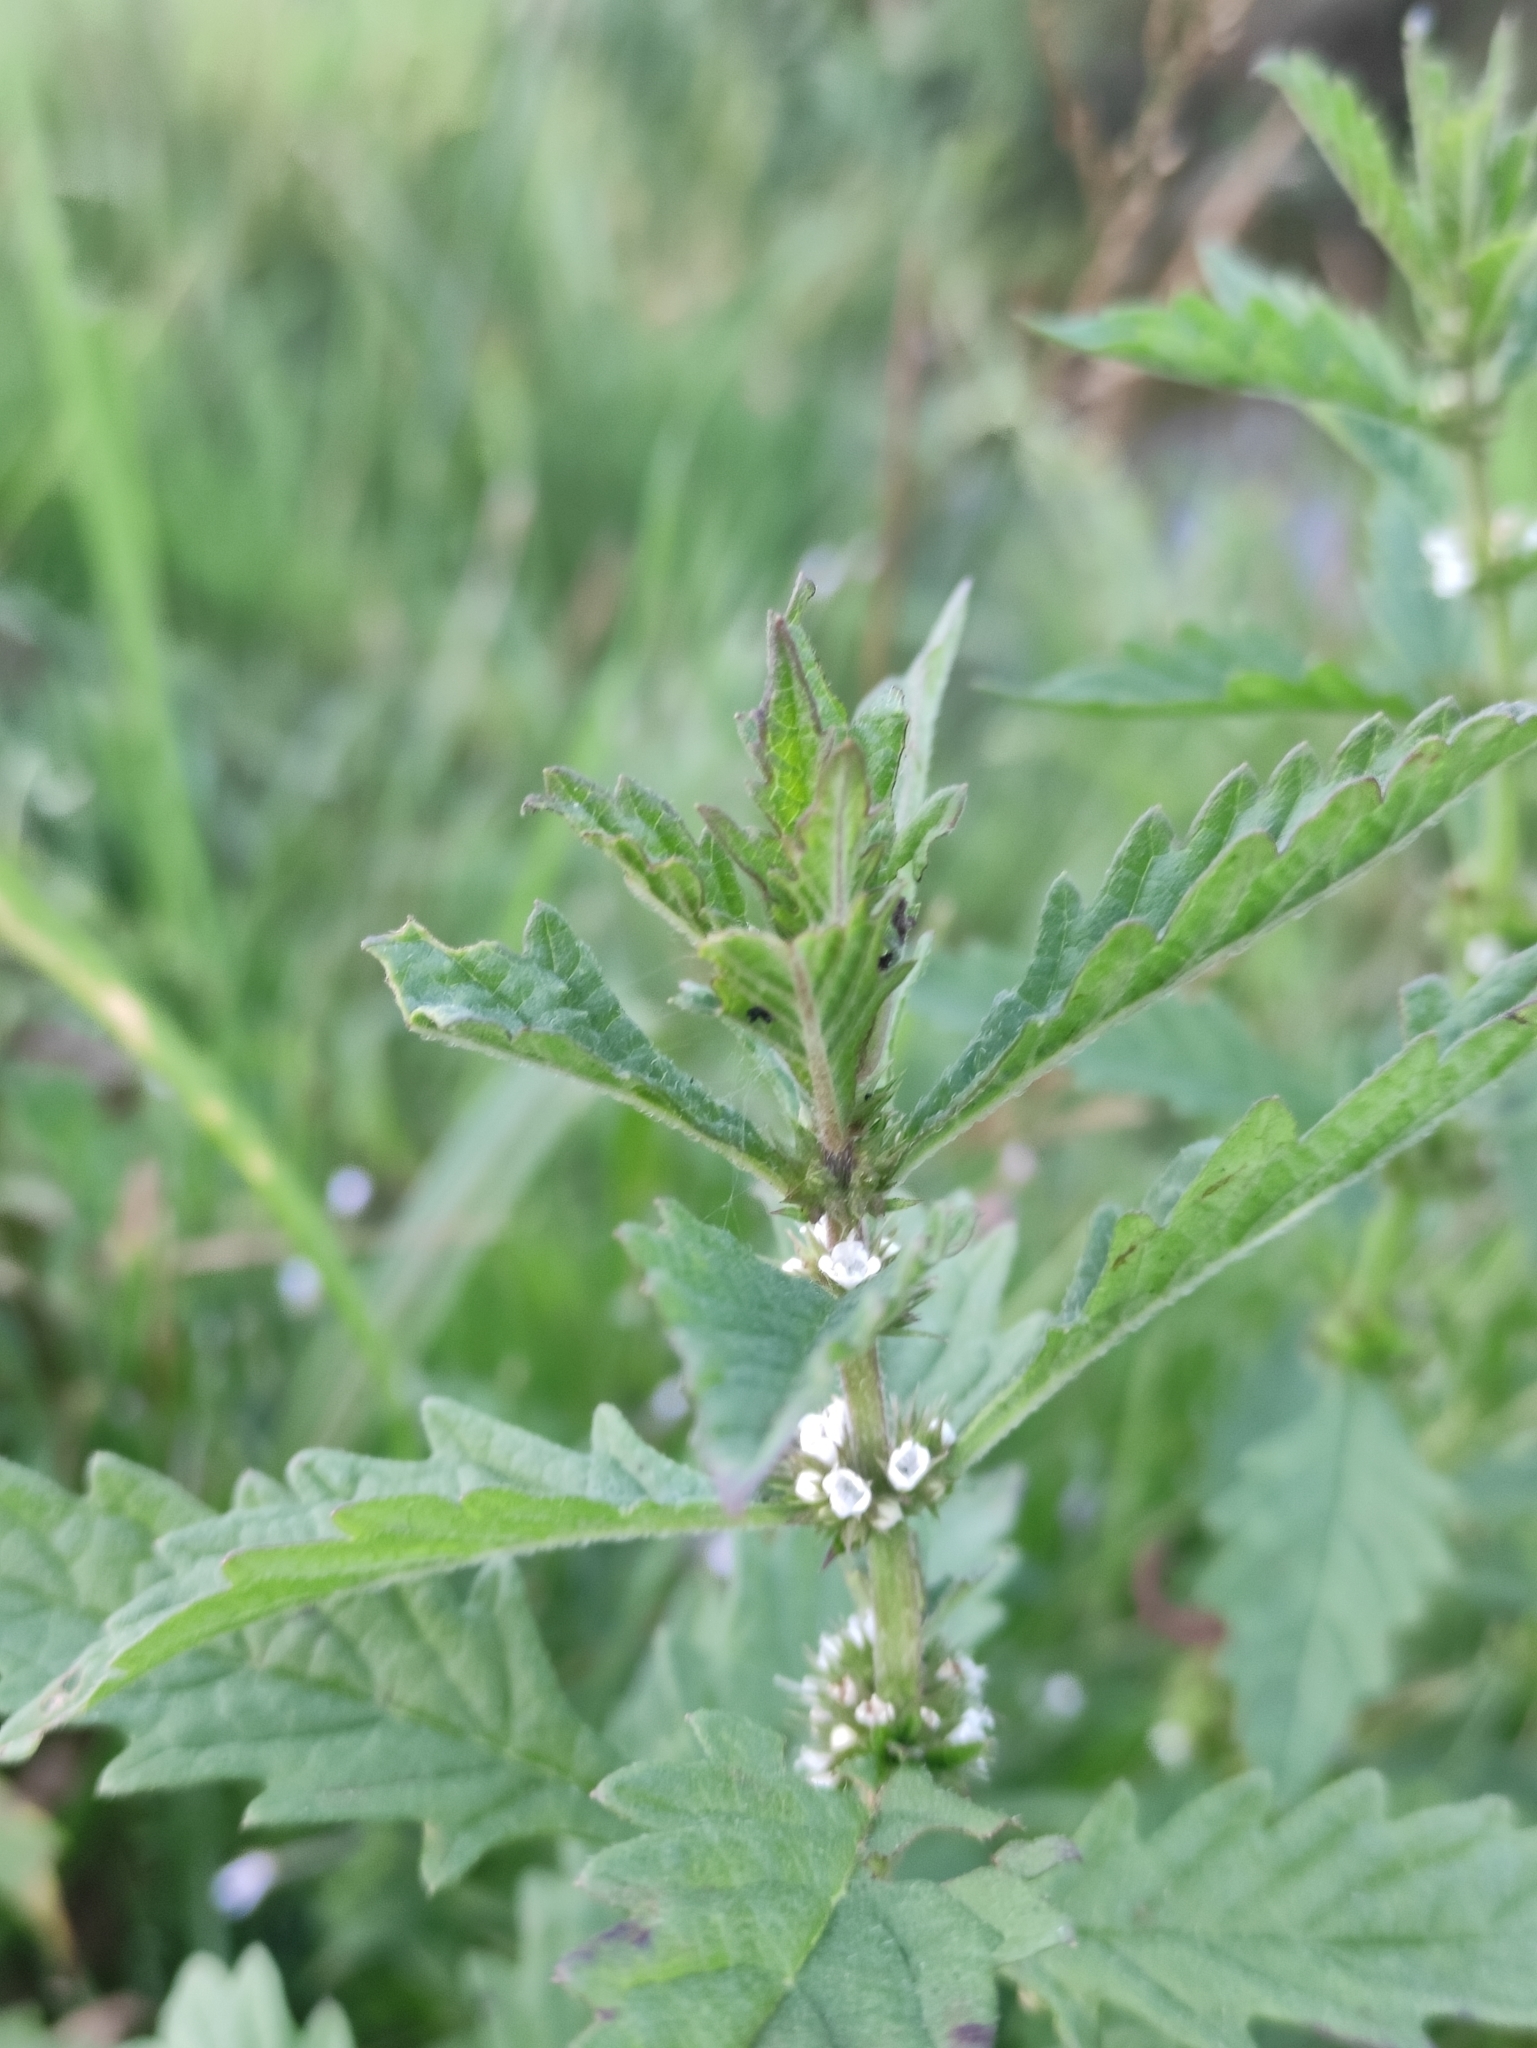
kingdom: Plantae
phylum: Tracheophyta
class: Magnoliopsida
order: Lamiales
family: Lamiaceae
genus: Lycopus
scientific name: Lycopus europaeus
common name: European bugleweed
